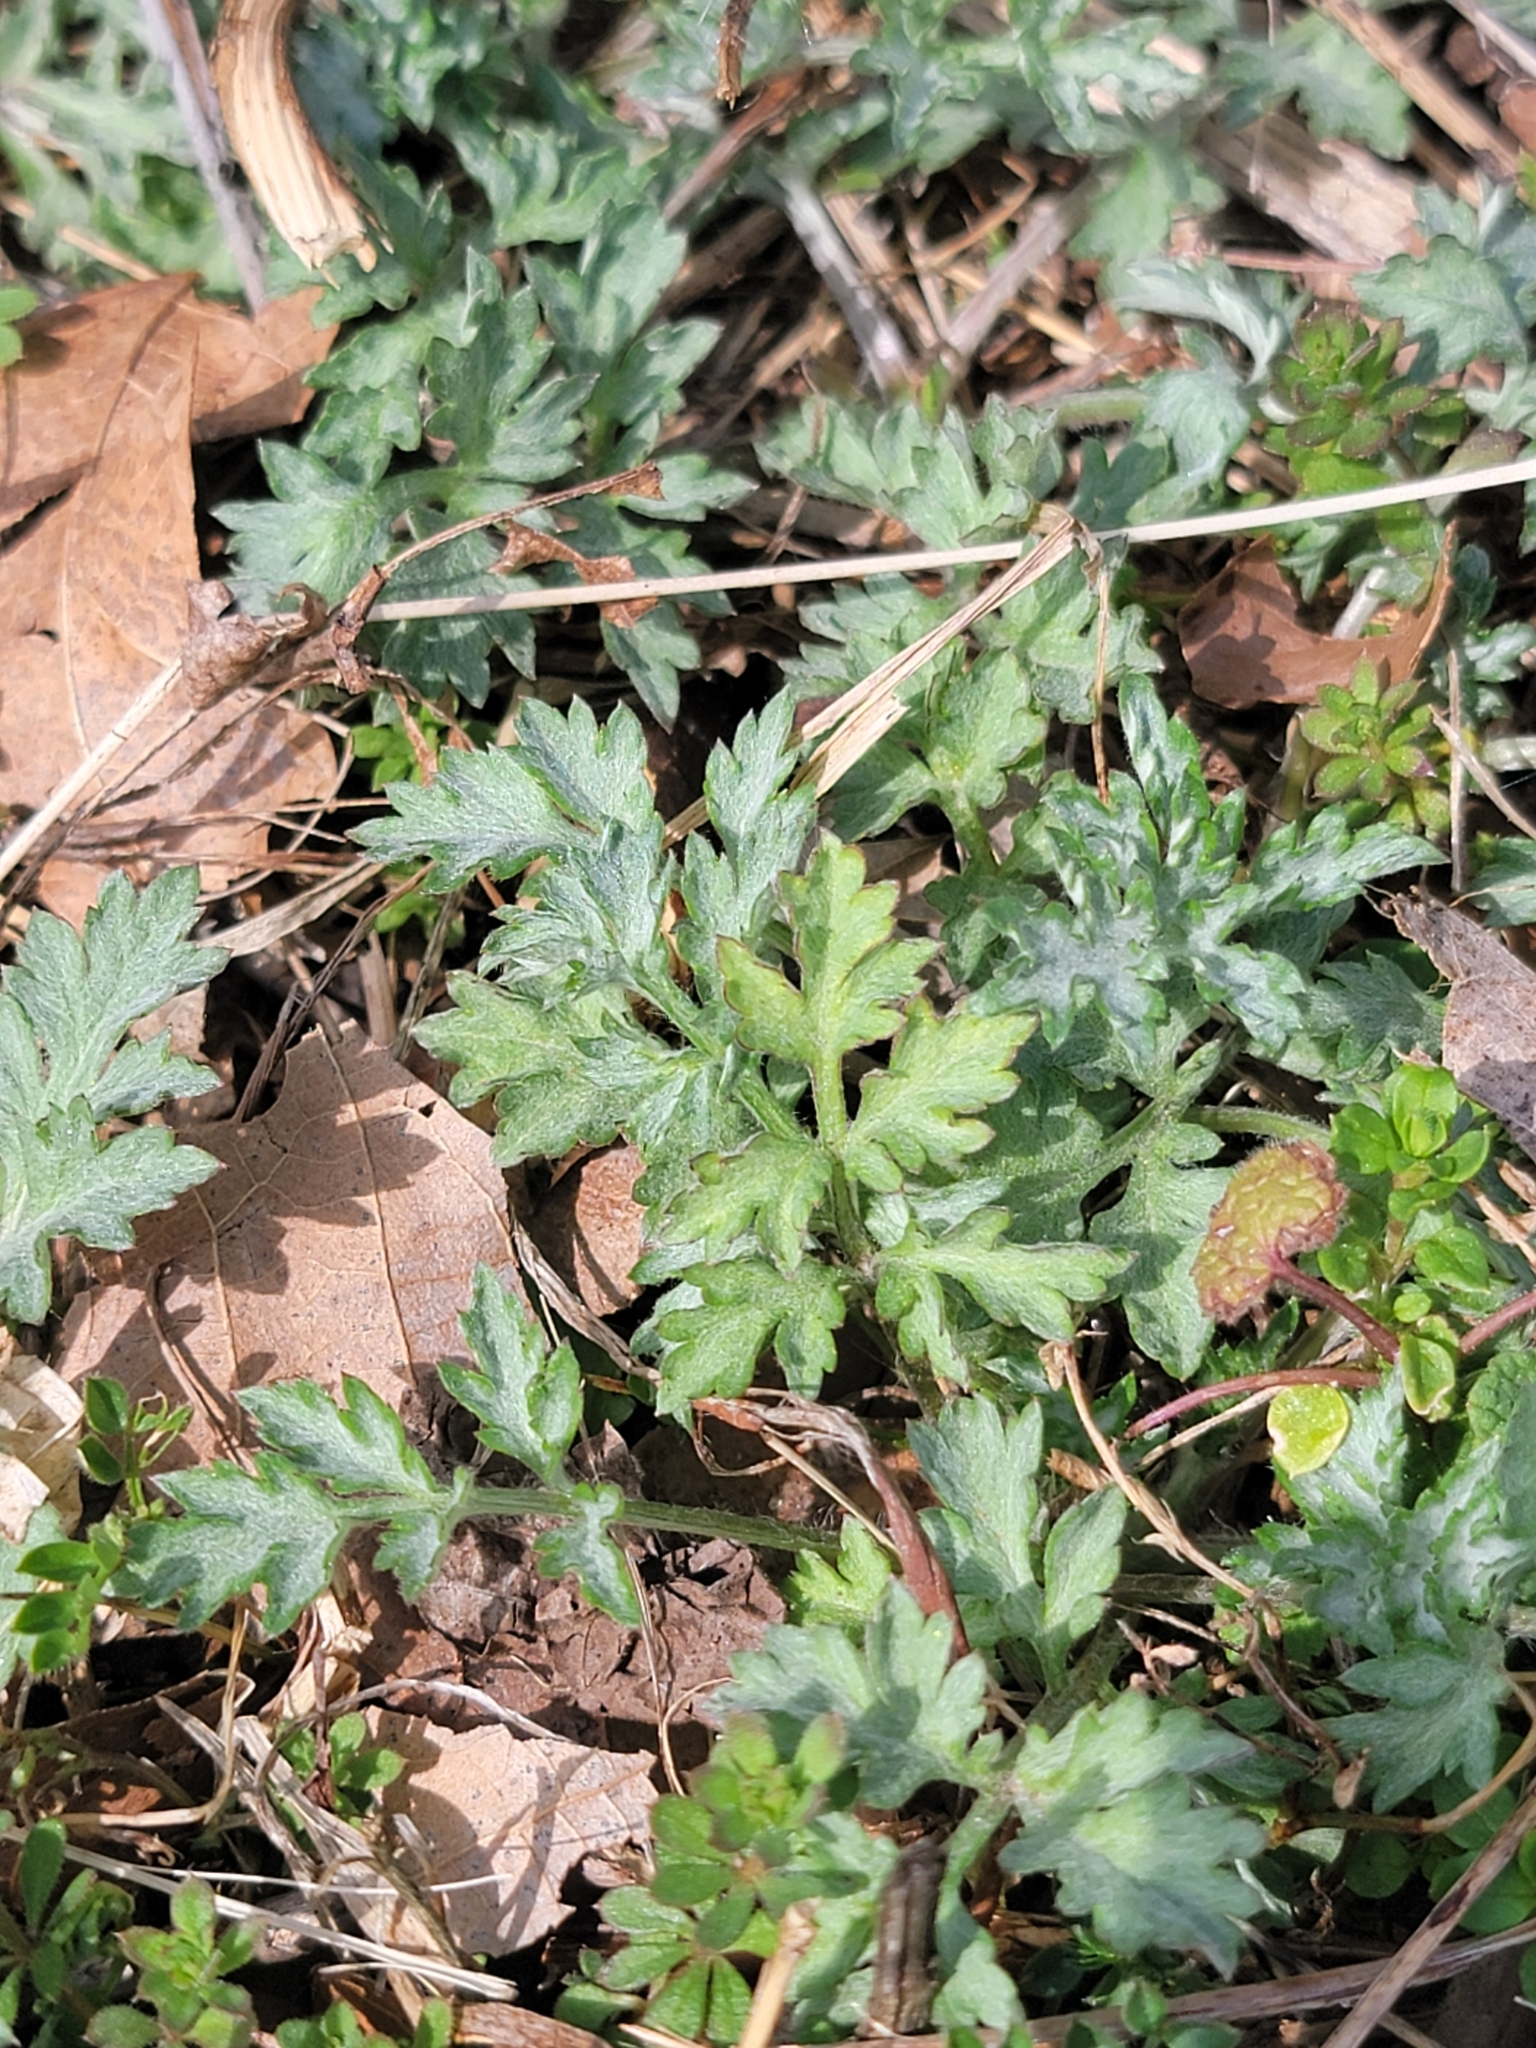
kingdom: Plantae
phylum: Tracheophyta
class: Magnoliopsida
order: Asterales
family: Asteraceae
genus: Artemisia
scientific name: Artemisia vulgaris
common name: Mugwort
